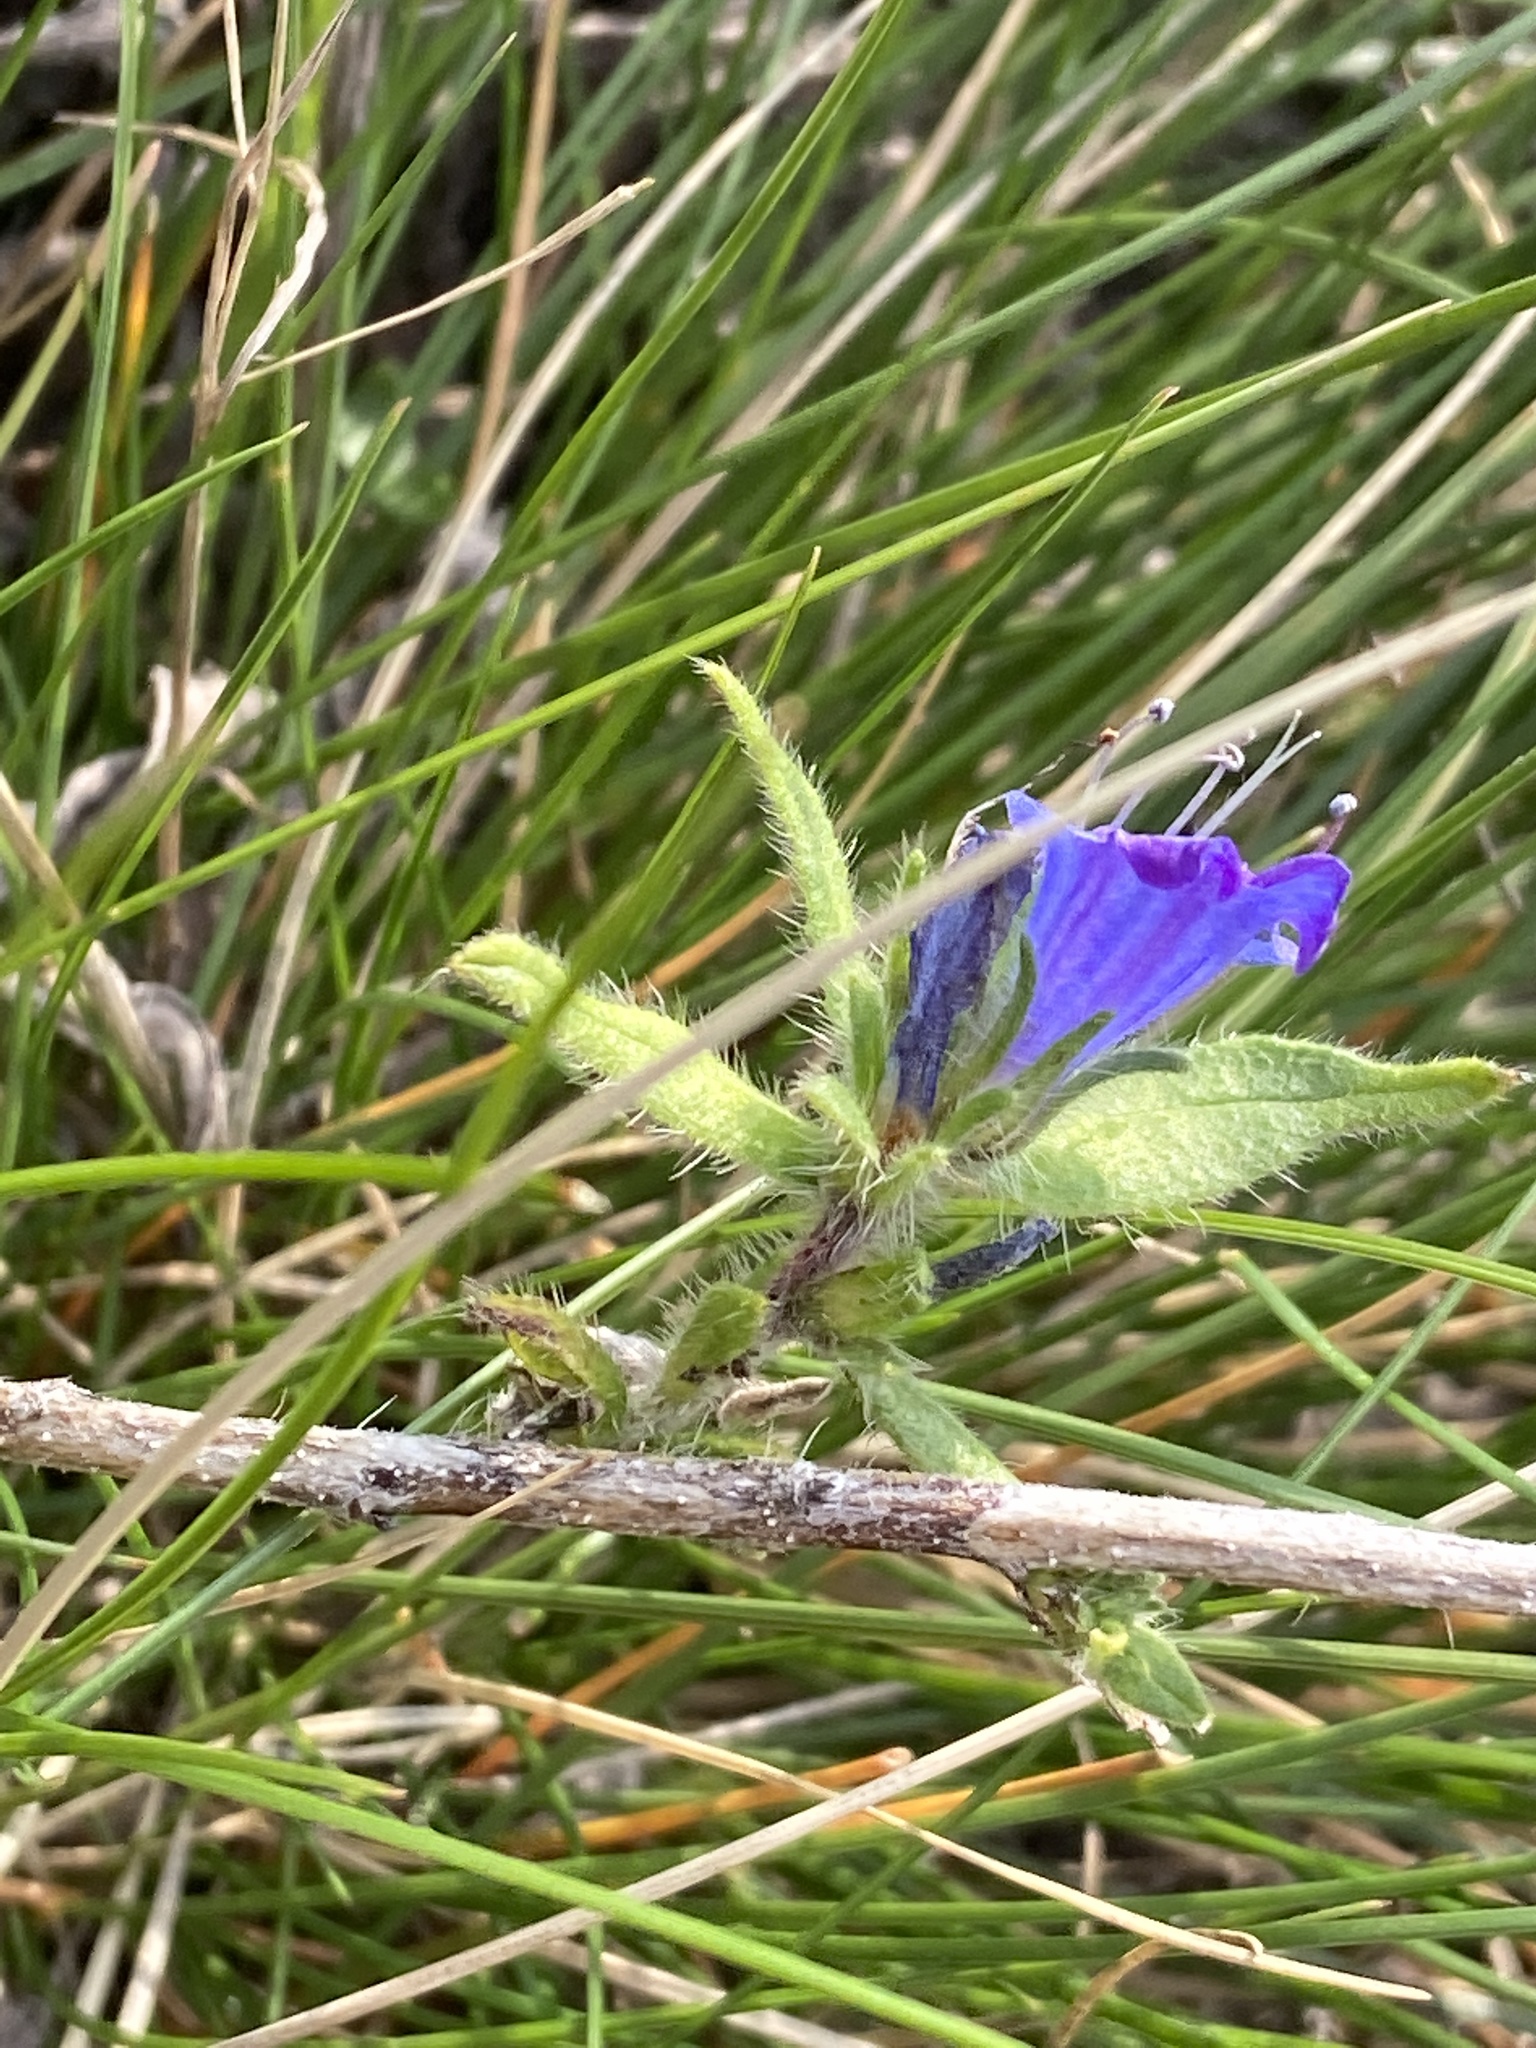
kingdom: Plantae
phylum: Tracheophyta
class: Magnoliopsida
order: Boraginales
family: Boraginaceae
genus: Echium
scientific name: Echium vulgare
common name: Common viper's bugloss
